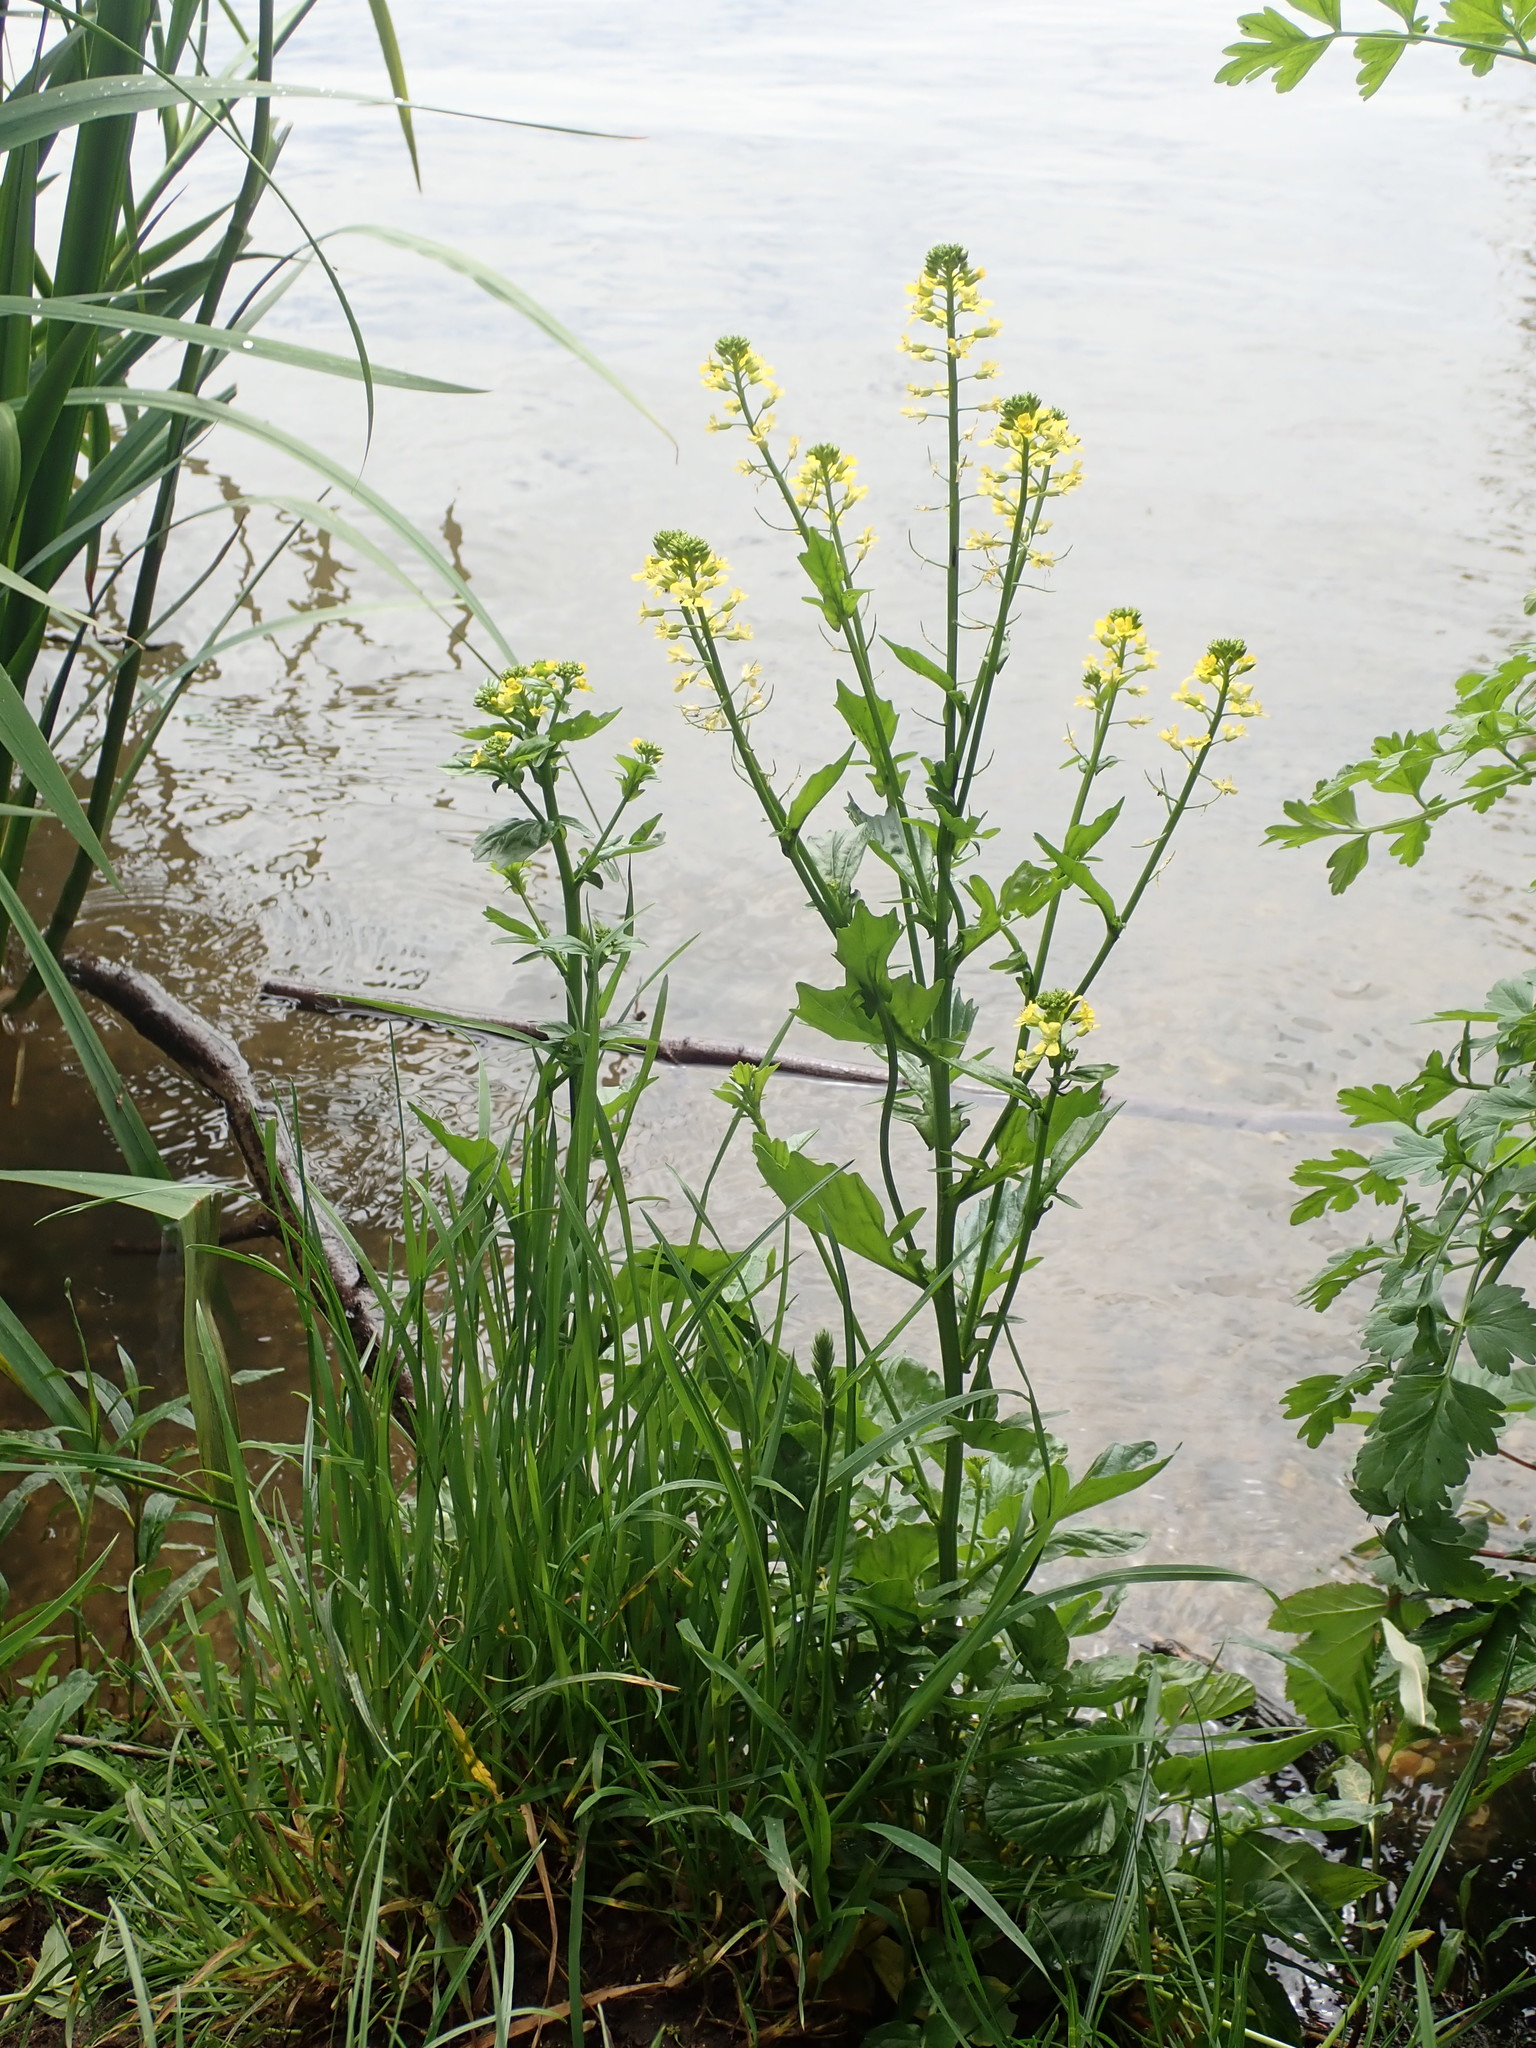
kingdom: Plantae
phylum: Tracheophyta
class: Magnoliopsida
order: Brassicales
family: Brassicaceae
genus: Barbarea
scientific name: Barbarea vulgaris
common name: Cressy-greens
